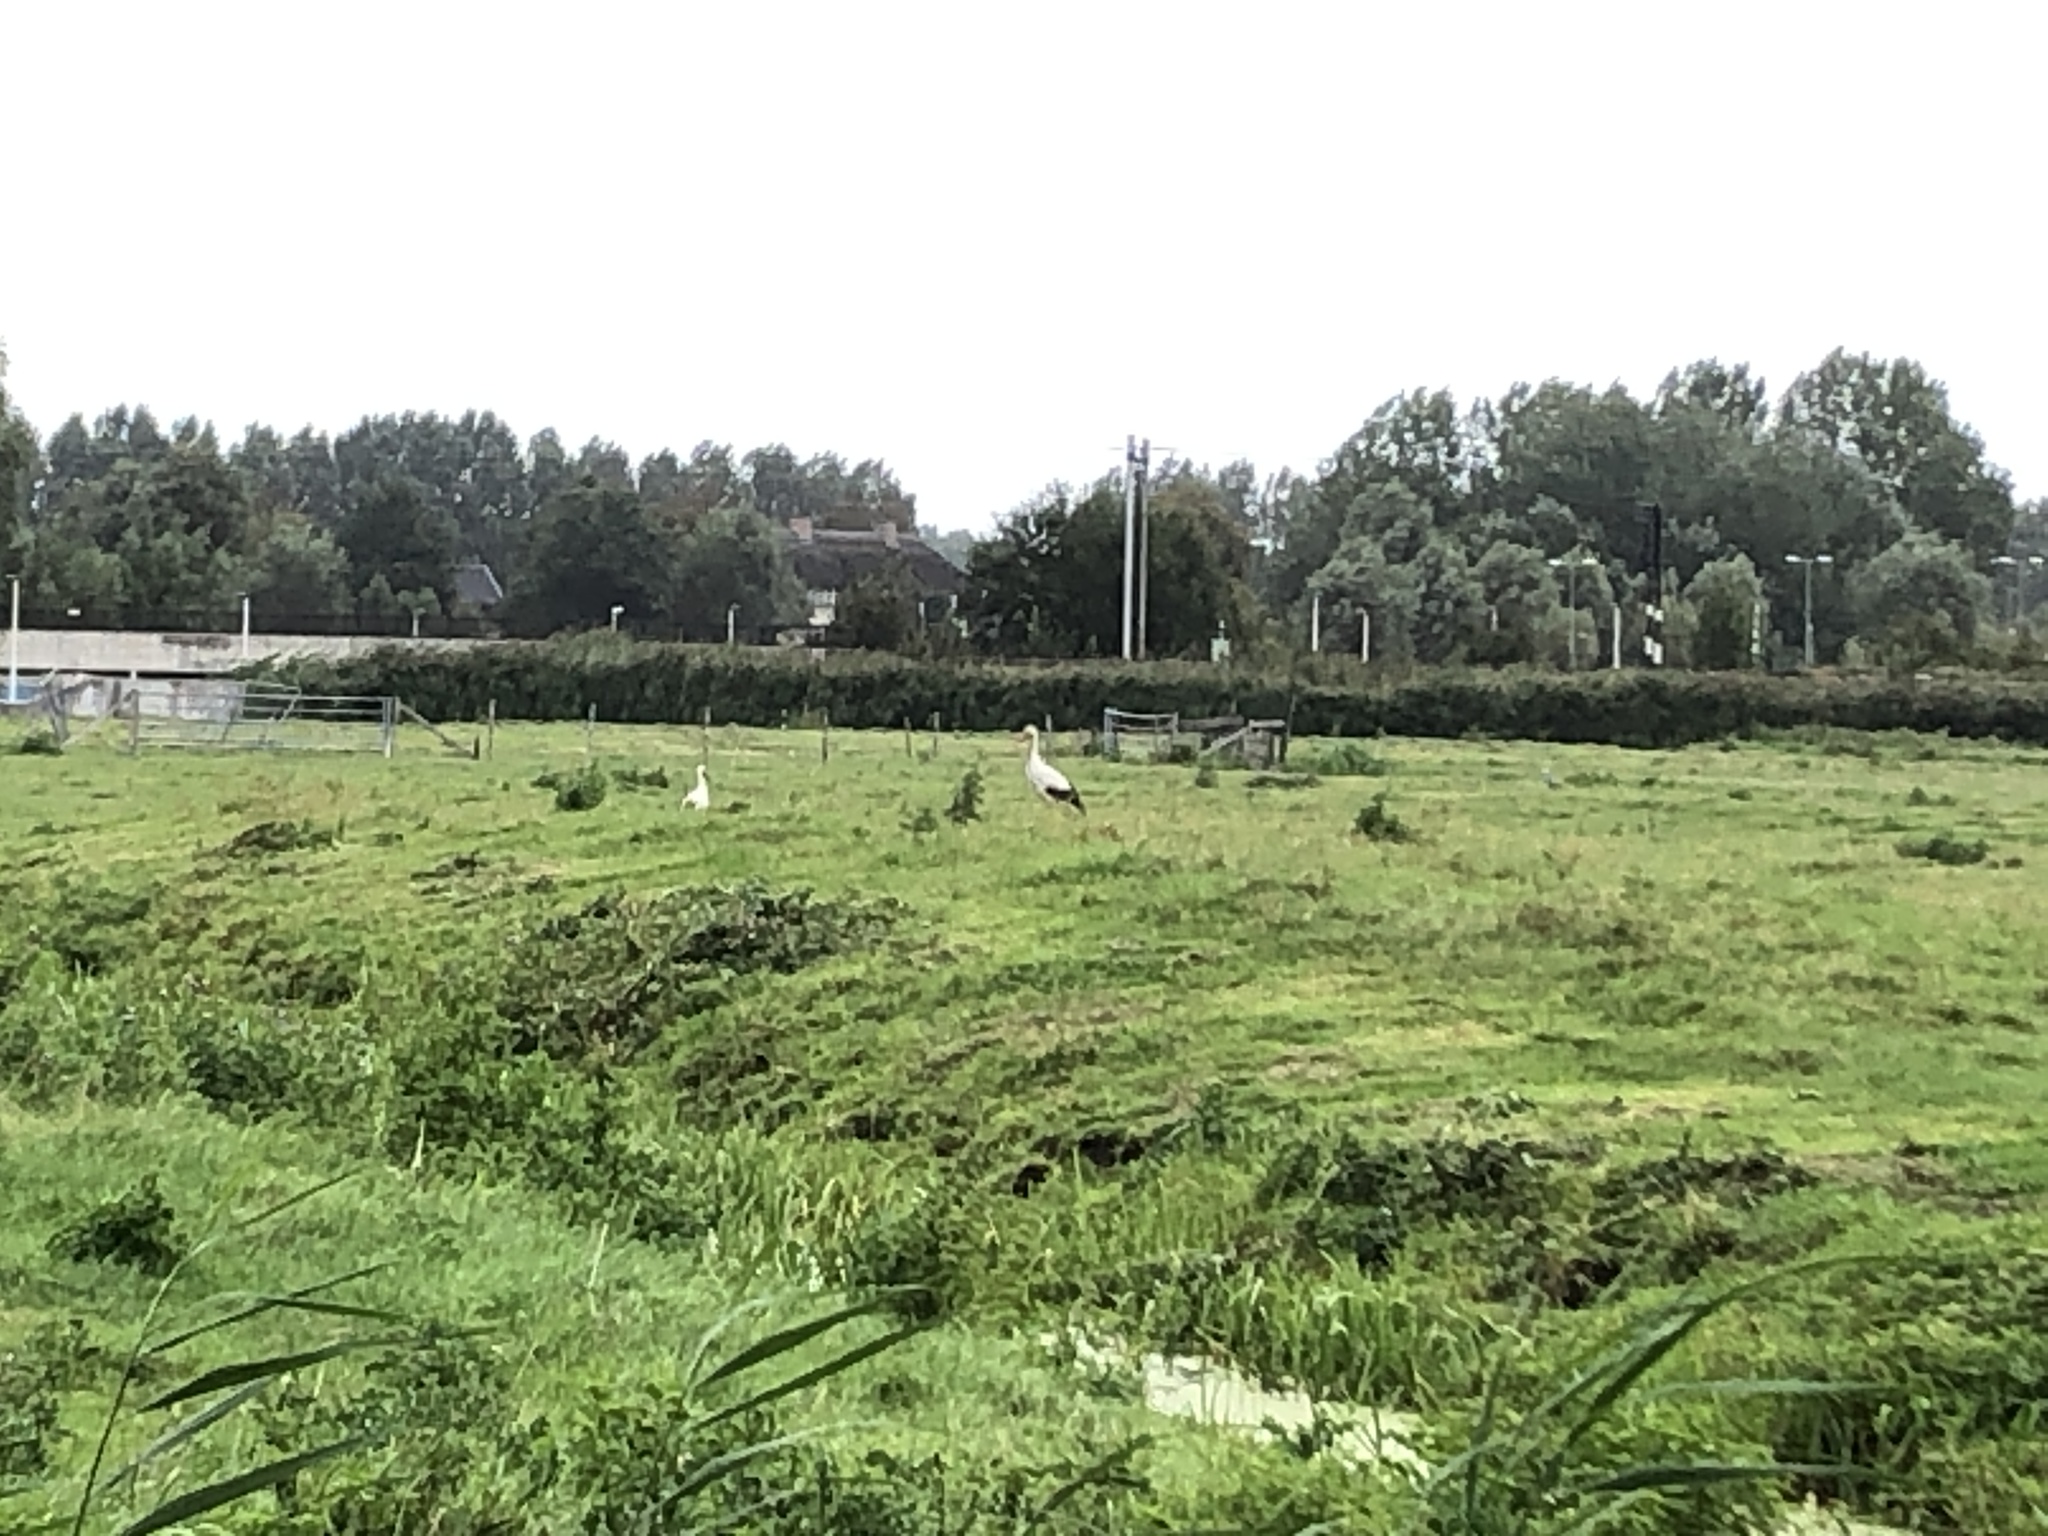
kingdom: Animalia
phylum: Chordata
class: Aves
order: Ciconiiformes
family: Ciconiidae
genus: Ciconia
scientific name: Ciconia ciconia
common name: White stork
